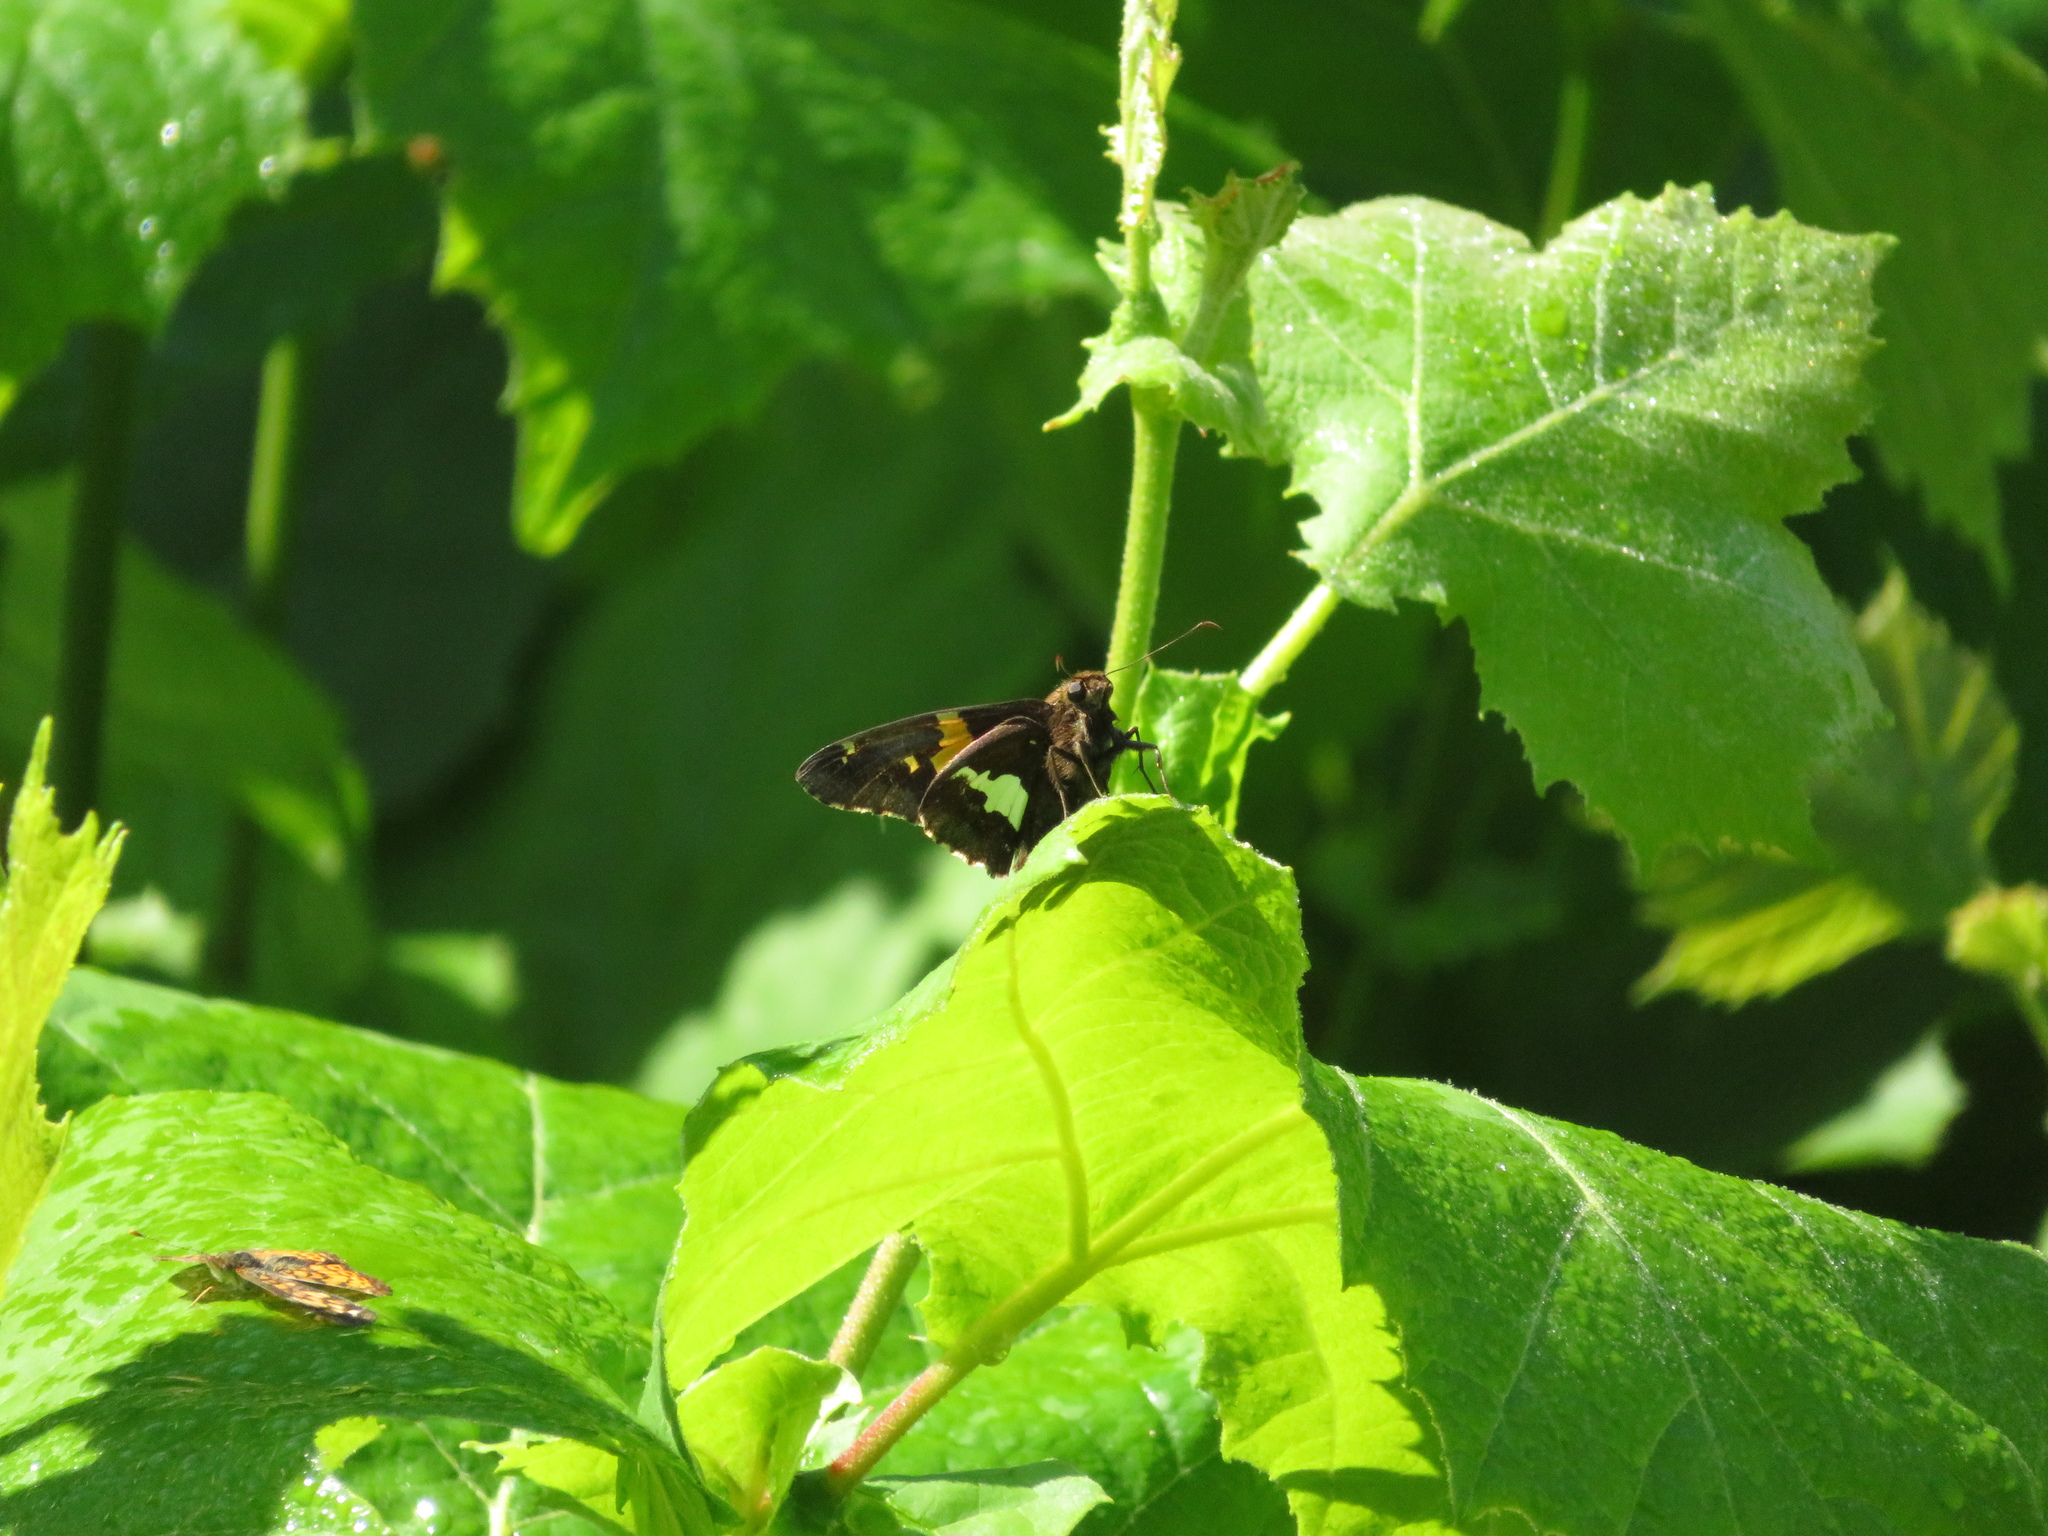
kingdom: Animalia
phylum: Arthropoda
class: Insecta
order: Lepidoptera
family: Hesperiidae
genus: Epargyreus
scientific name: Epargyreus clarus
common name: Silver-spotted skipper
